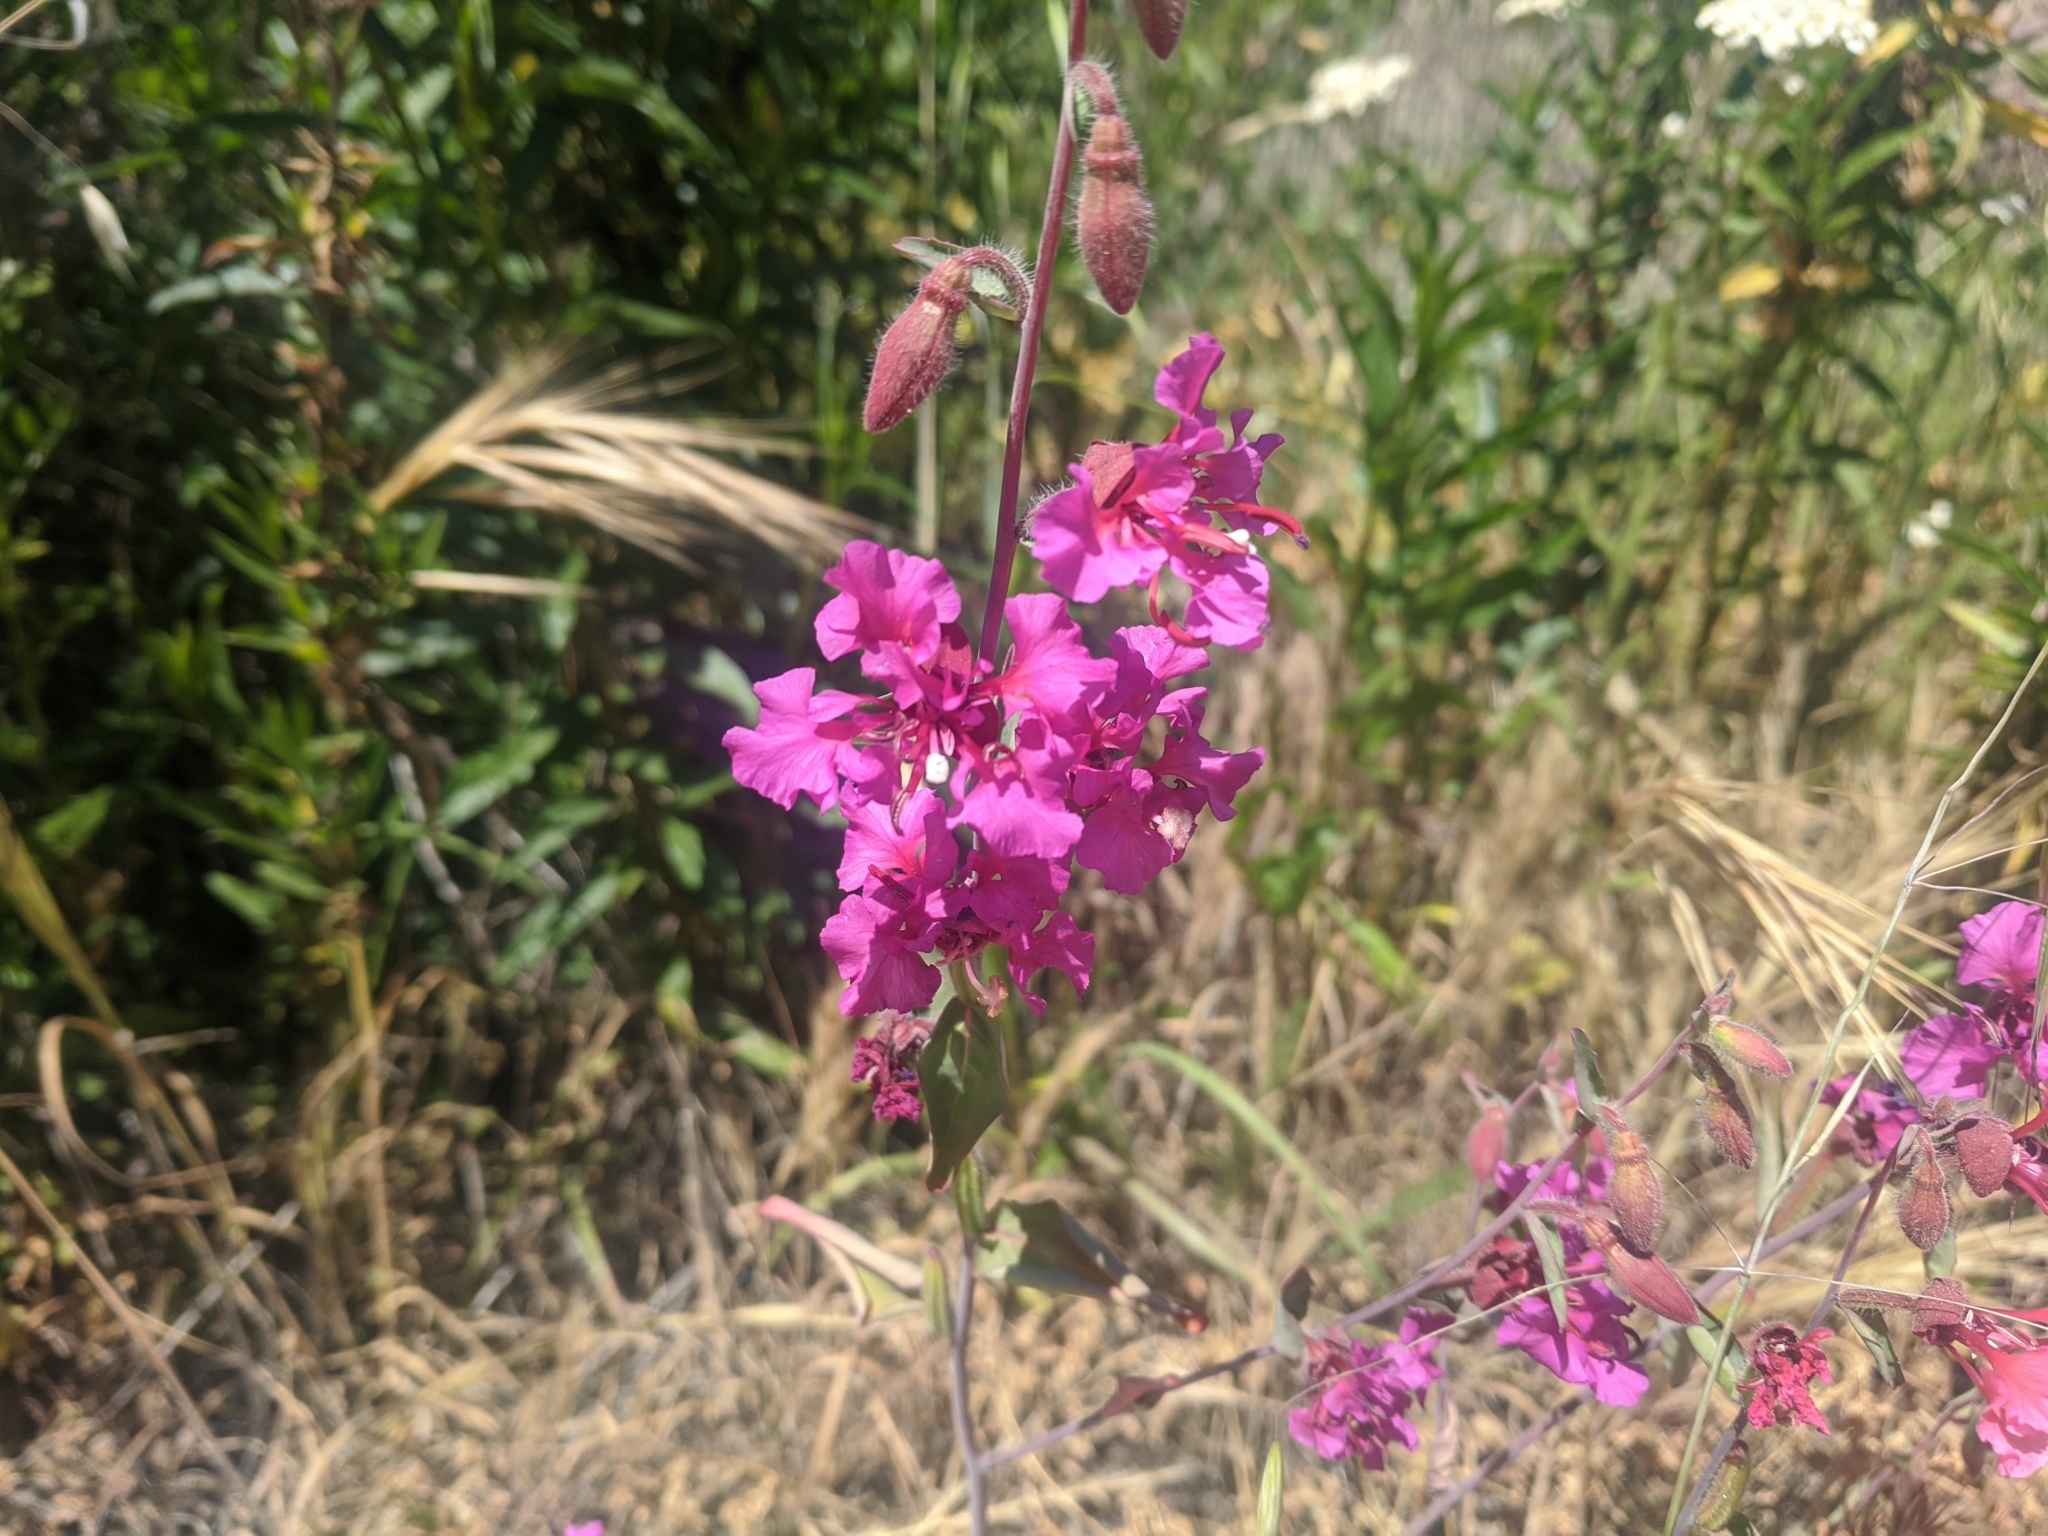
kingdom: Plantae
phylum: Tracheophyta
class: Magnoliopsida
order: Myrtales
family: Onagraceae
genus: Clarkia
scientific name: Clarkia unguiculata
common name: Clarkia
